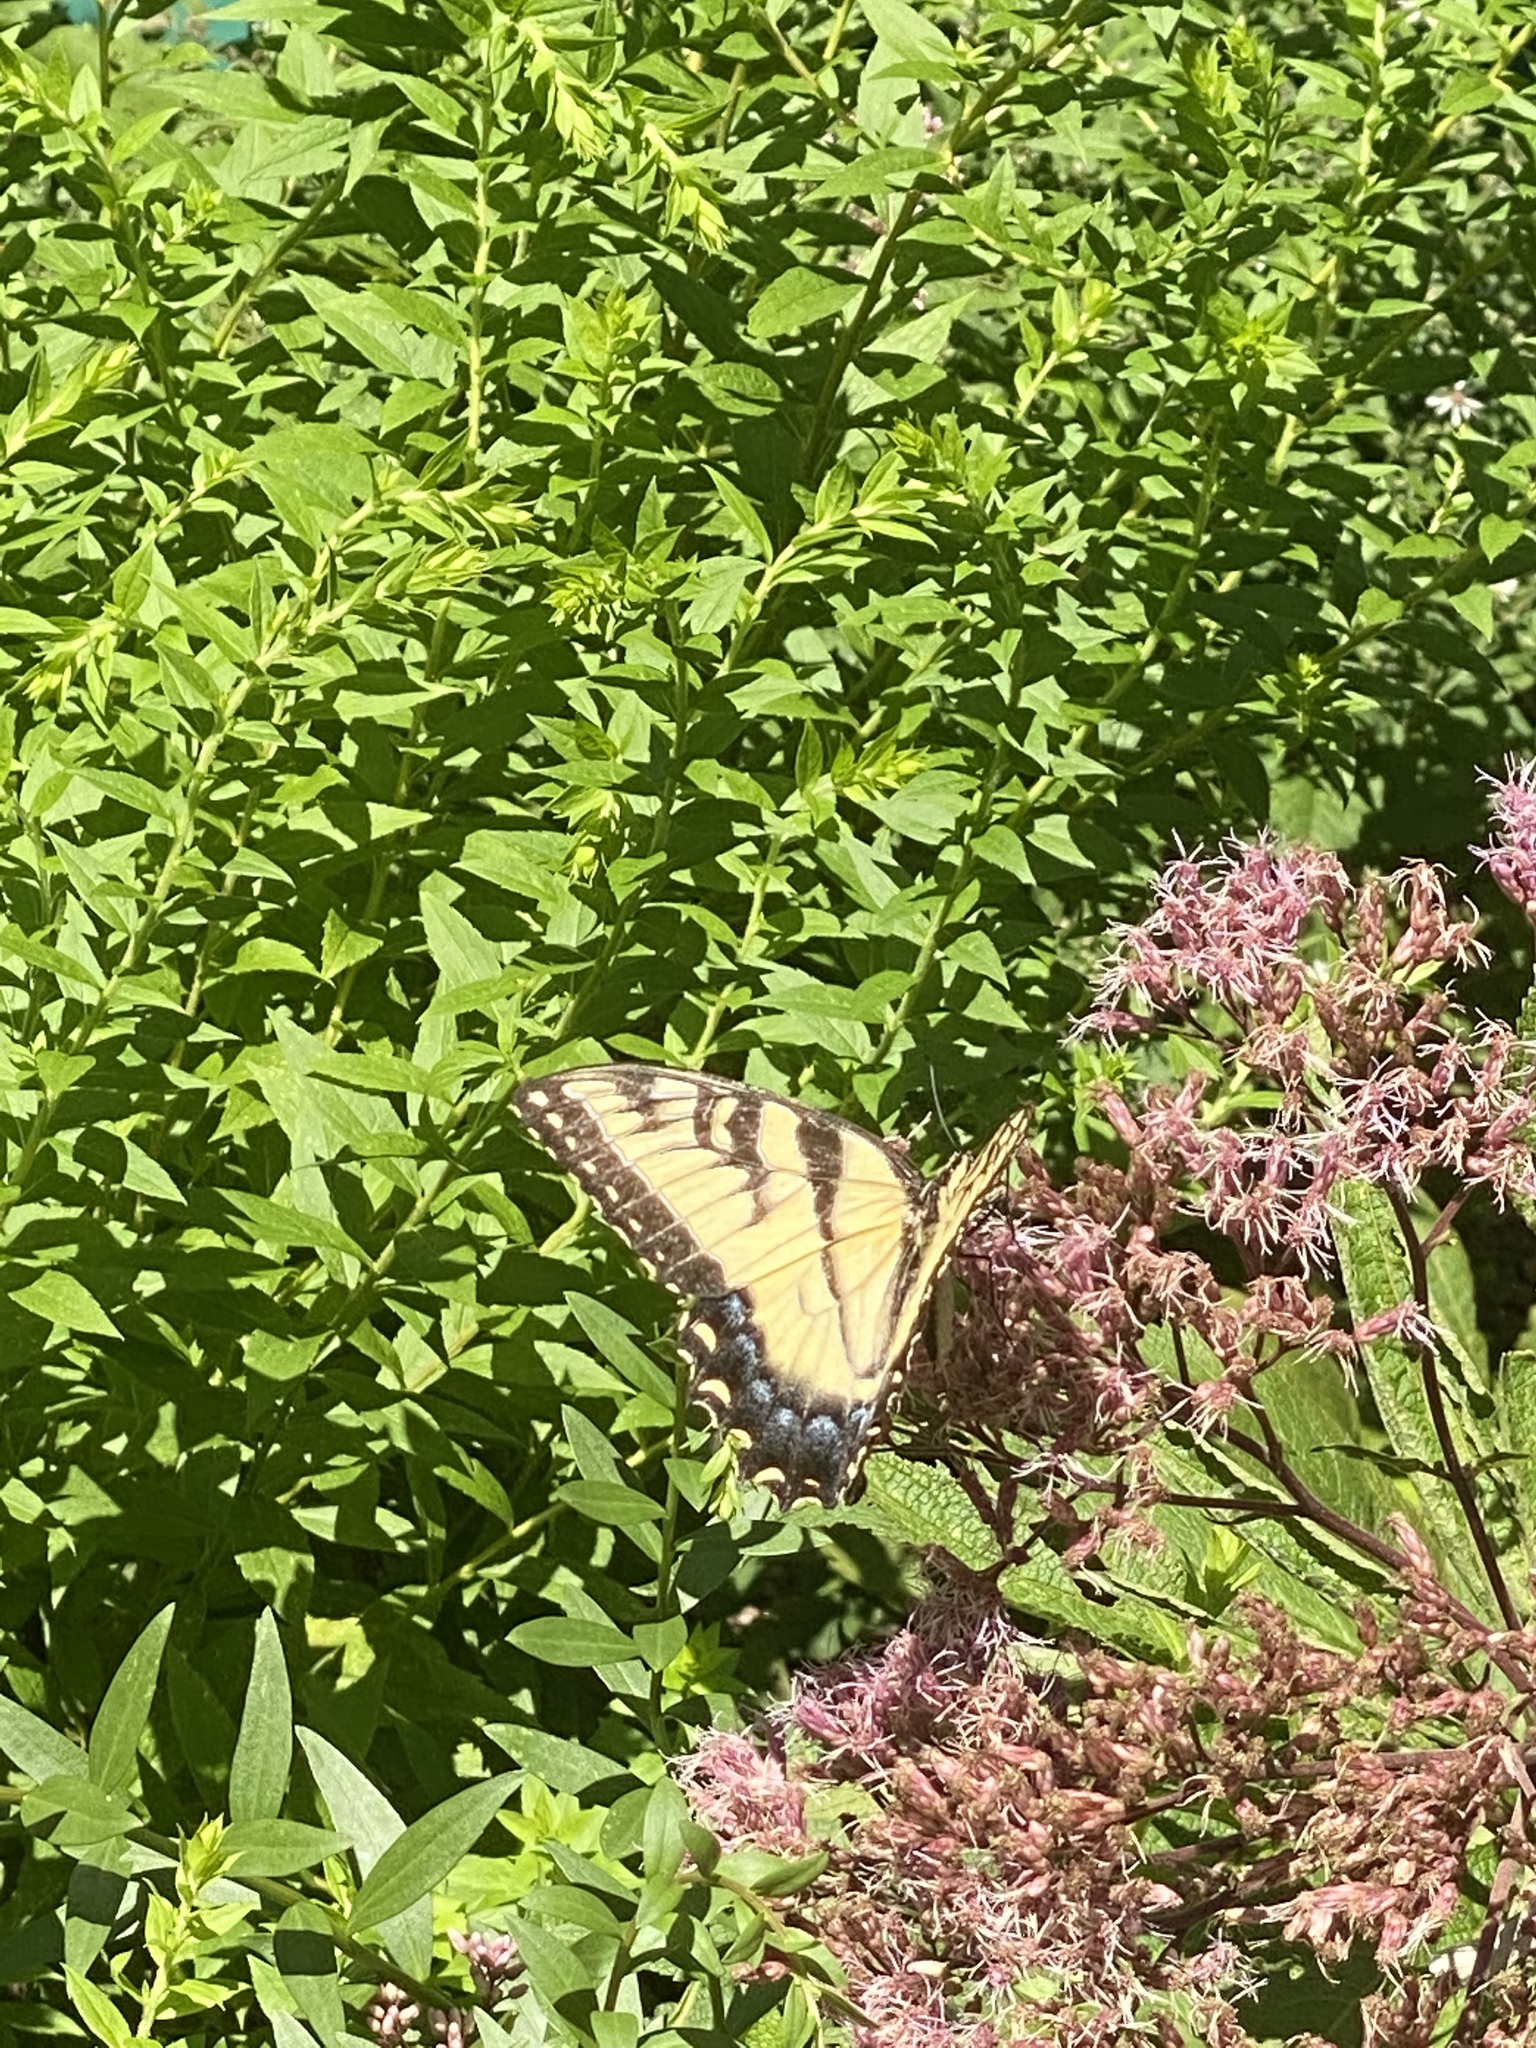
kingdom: Animalia
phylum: Arthropoda
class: Insecta
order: Lepidoptera
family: Papilionidae
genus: Papilio
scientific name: Papilio glaucus
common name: Tiger swallowtail
